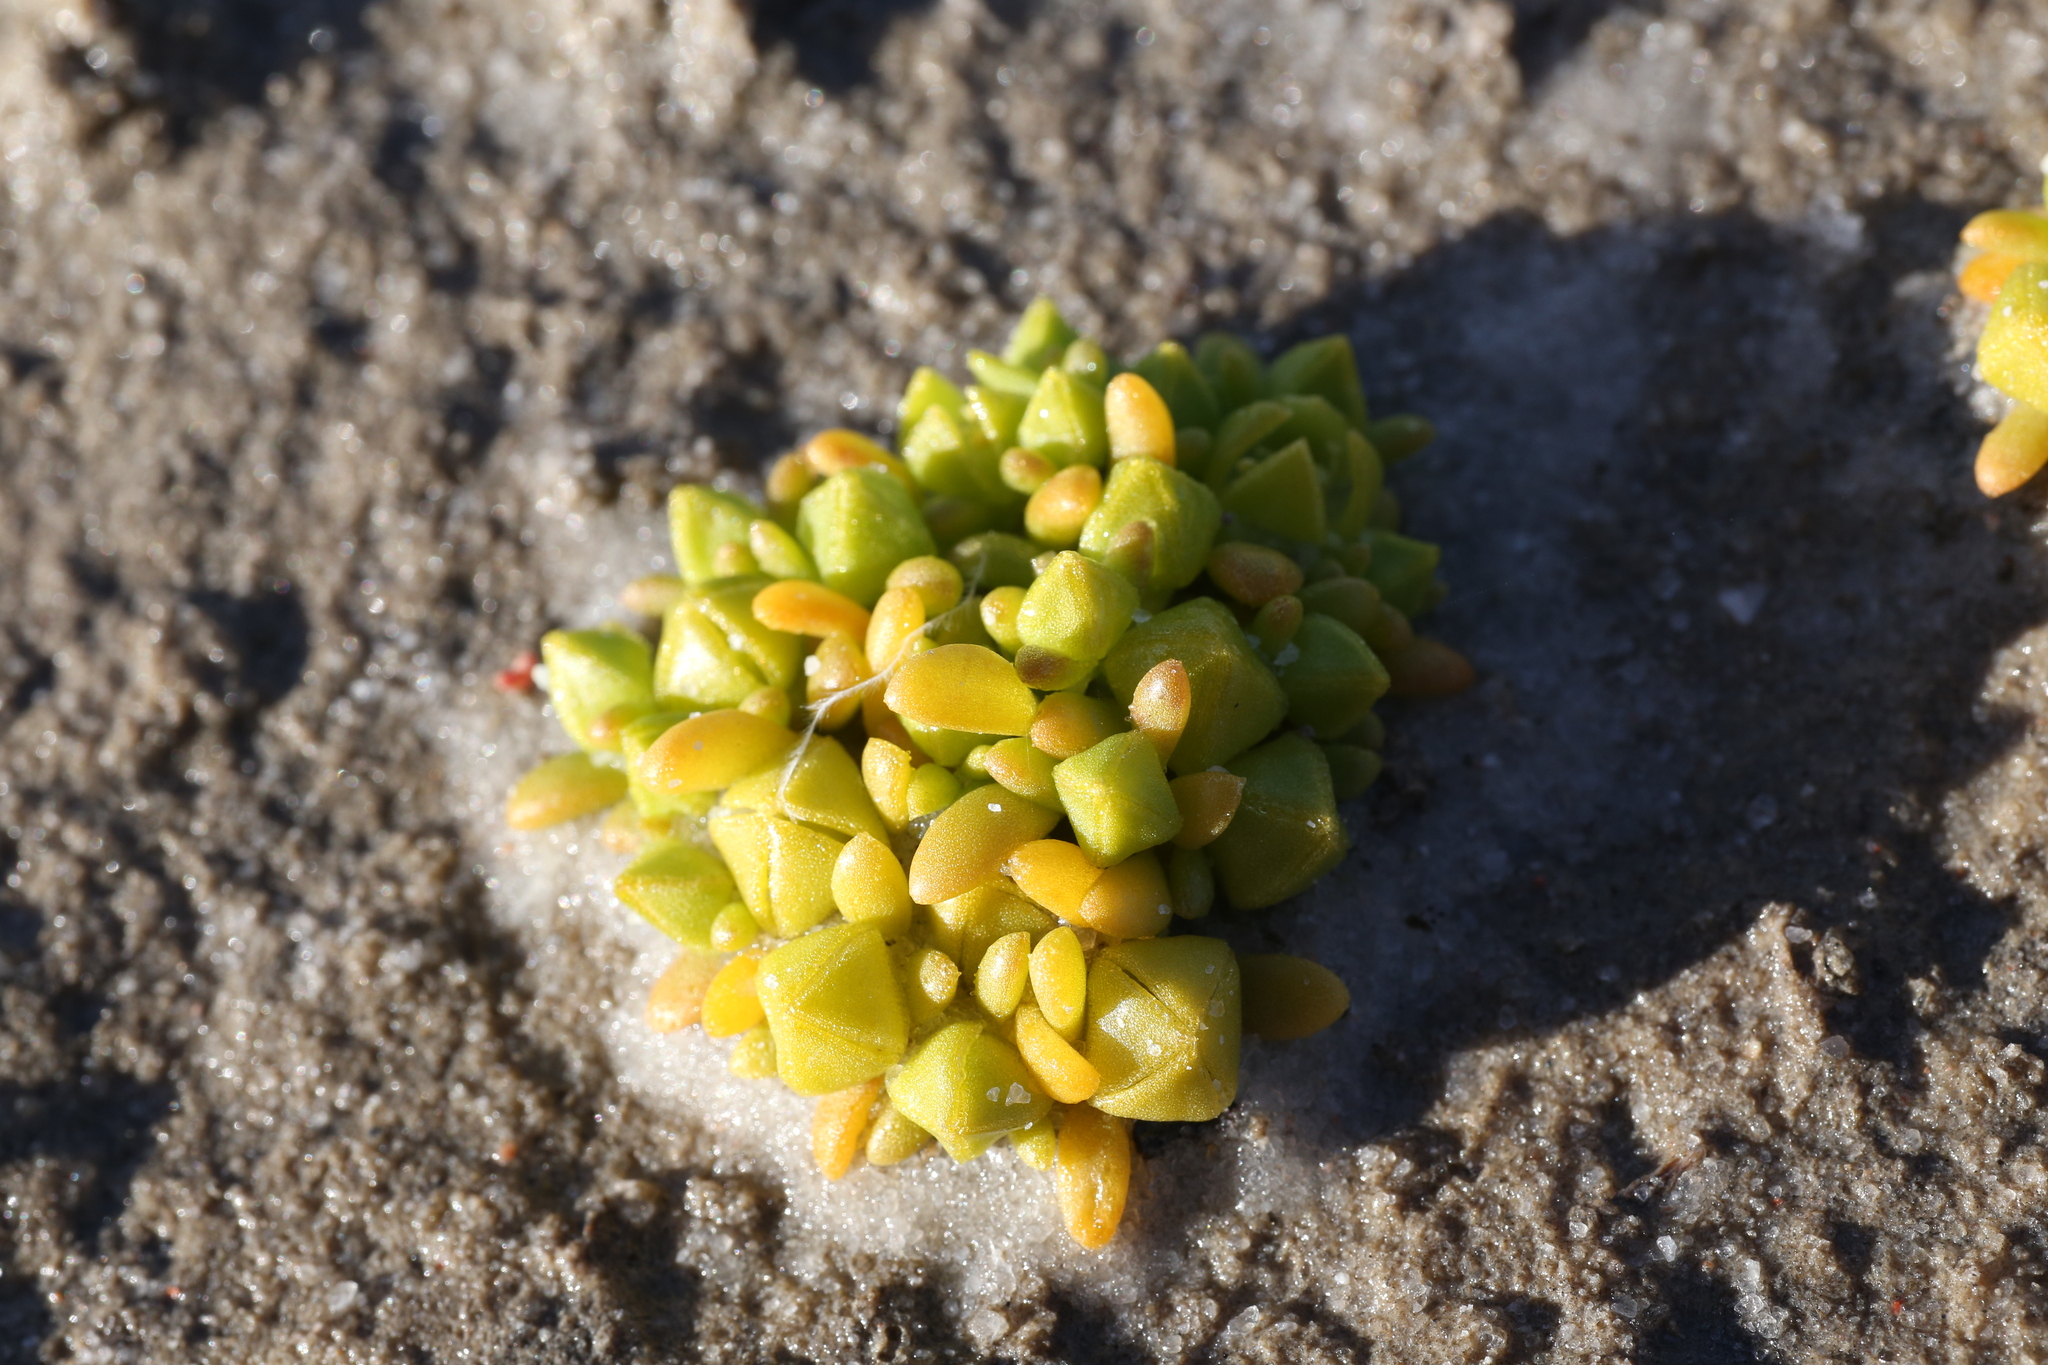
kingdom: Plantae
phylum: Tracheophyta
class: Magnoliopsida
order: Caryophyllales
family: Aizoaceae
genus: Gunniopsis
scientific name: Gunniopsis septifraga
